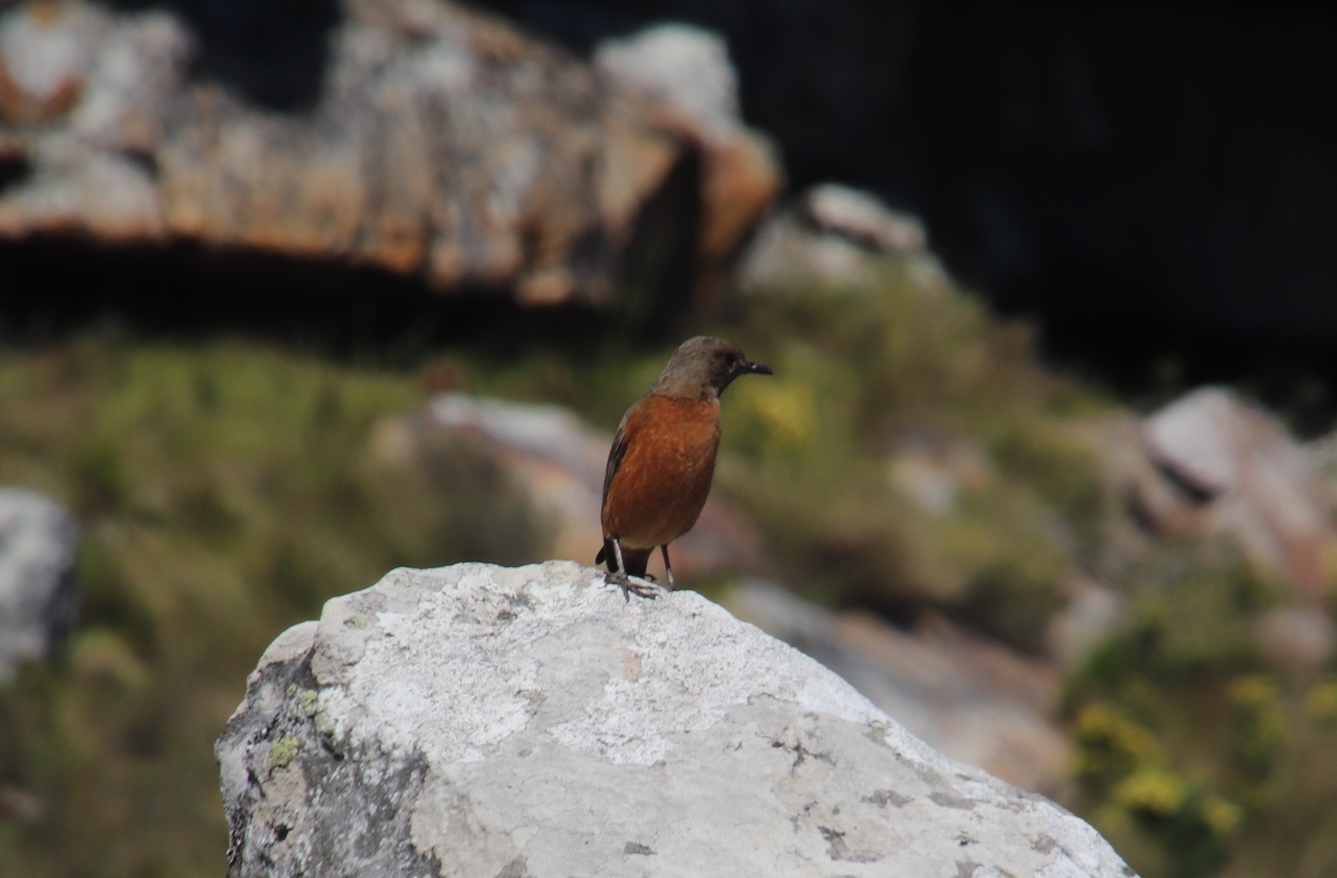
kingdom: Animalia
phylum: Chordata
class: Aves
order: Passeriformes
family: Muscicapidae
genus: Monticola
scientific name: Monticola rupestris
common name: Cape rock thrush
